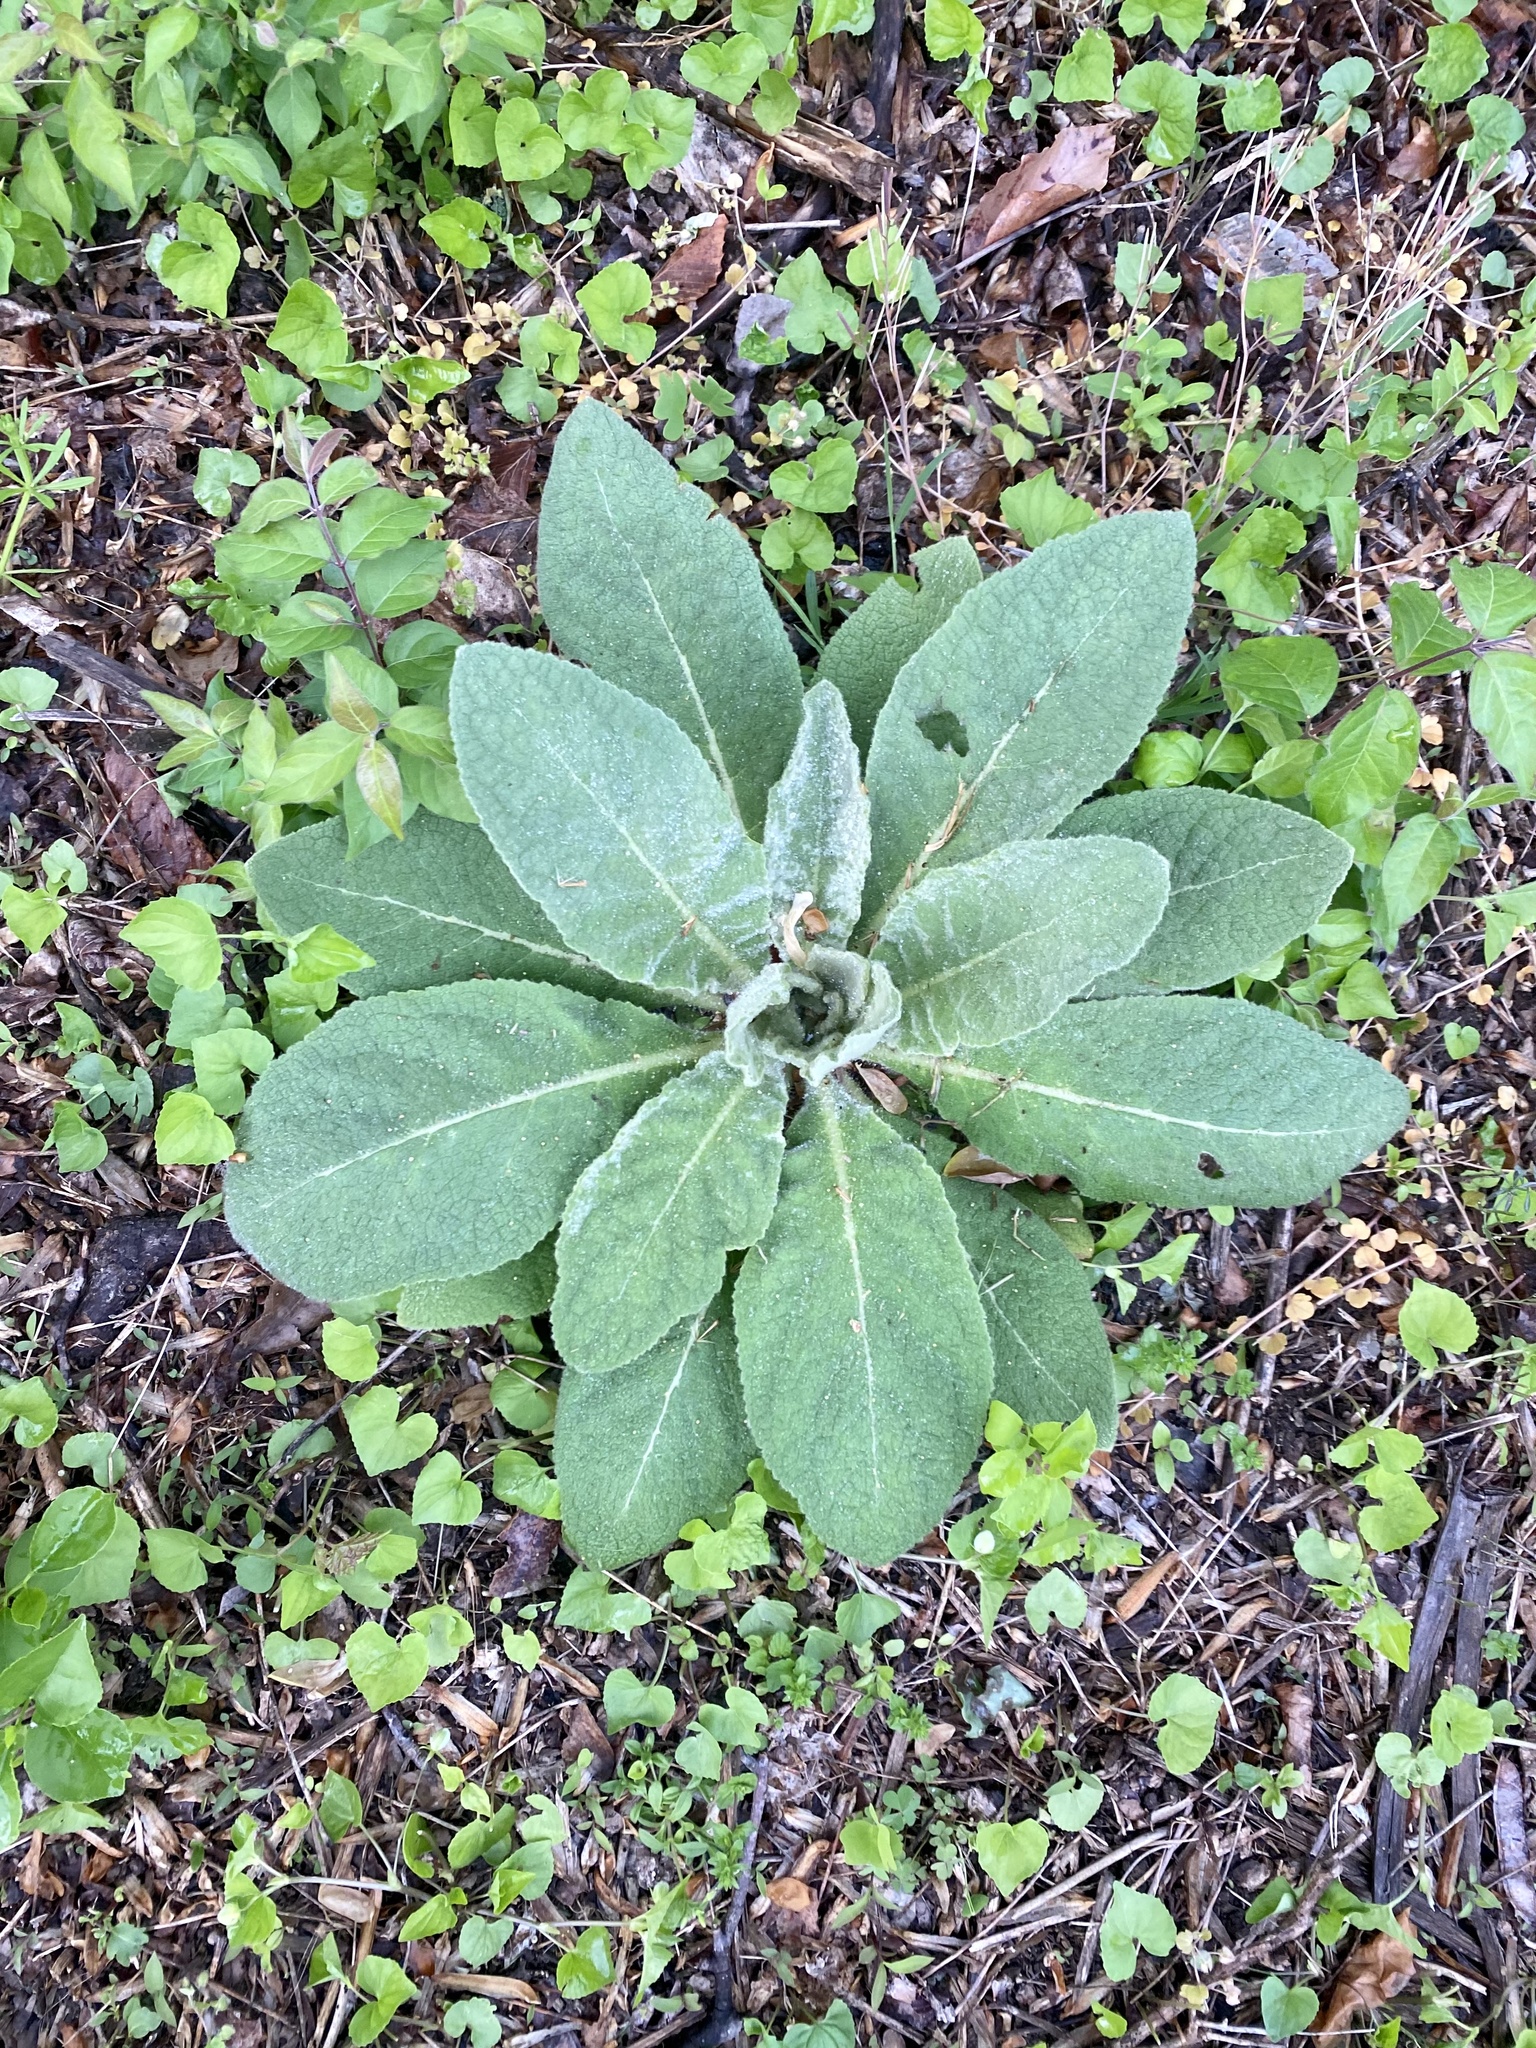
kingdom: Plantae
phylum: Tracheophyta
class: Magnoliopsida
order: Lamiales
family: Scrophulariaceae
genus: Verbascum
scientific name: Verbascum thapsus
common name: Common mullein
